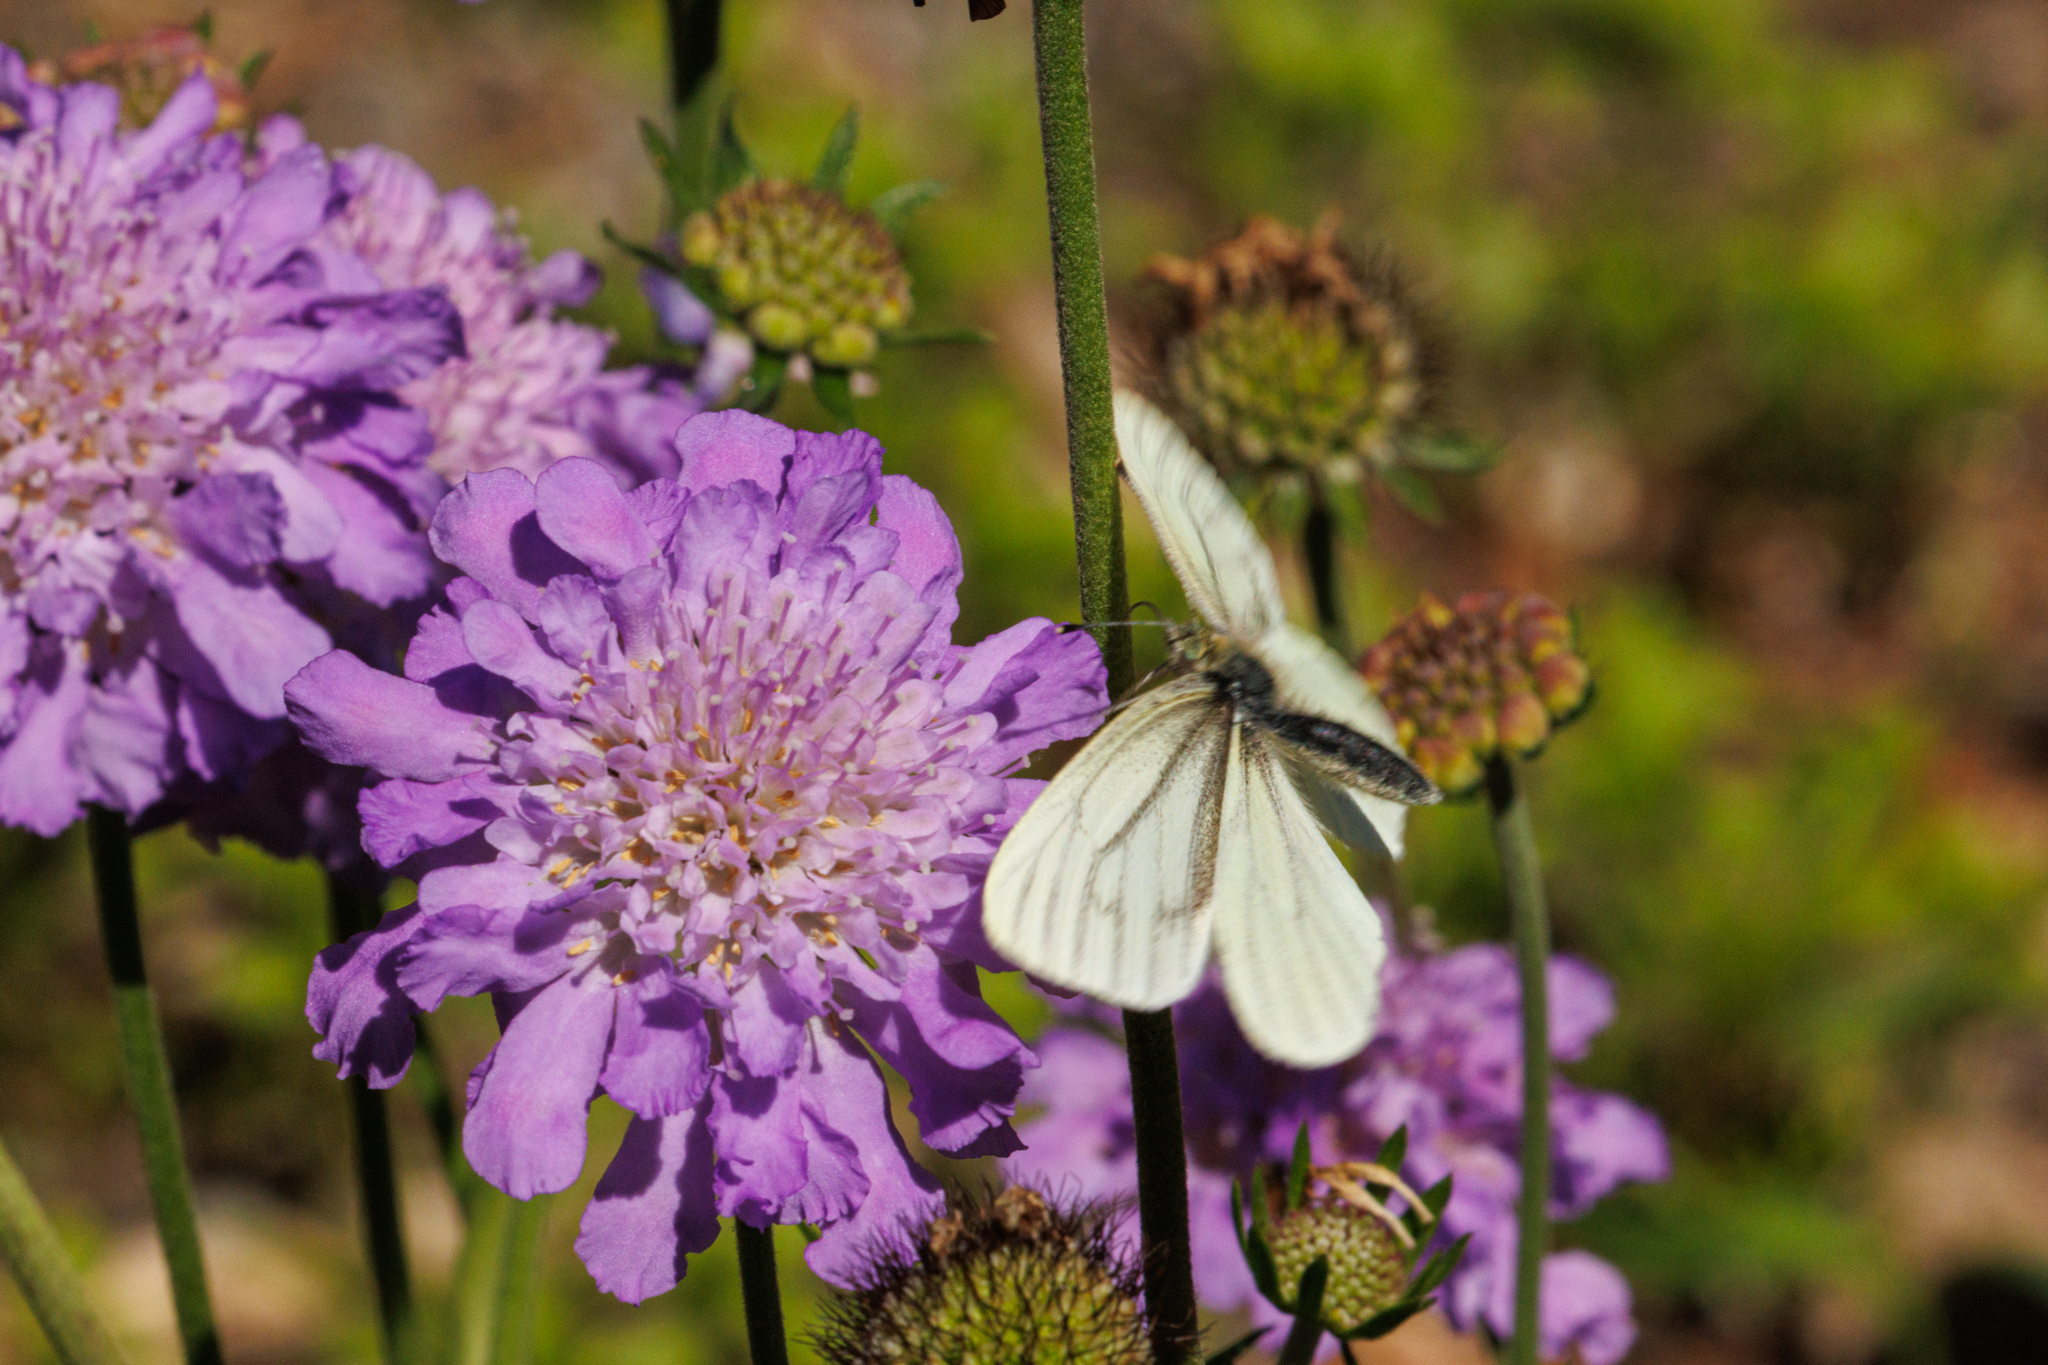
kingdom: Animalia
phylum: Arthropoda
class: Insecta
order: Lepidoptera
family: Pieridae
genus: Pieris
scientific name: Pieris marginalis
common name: Margined white
